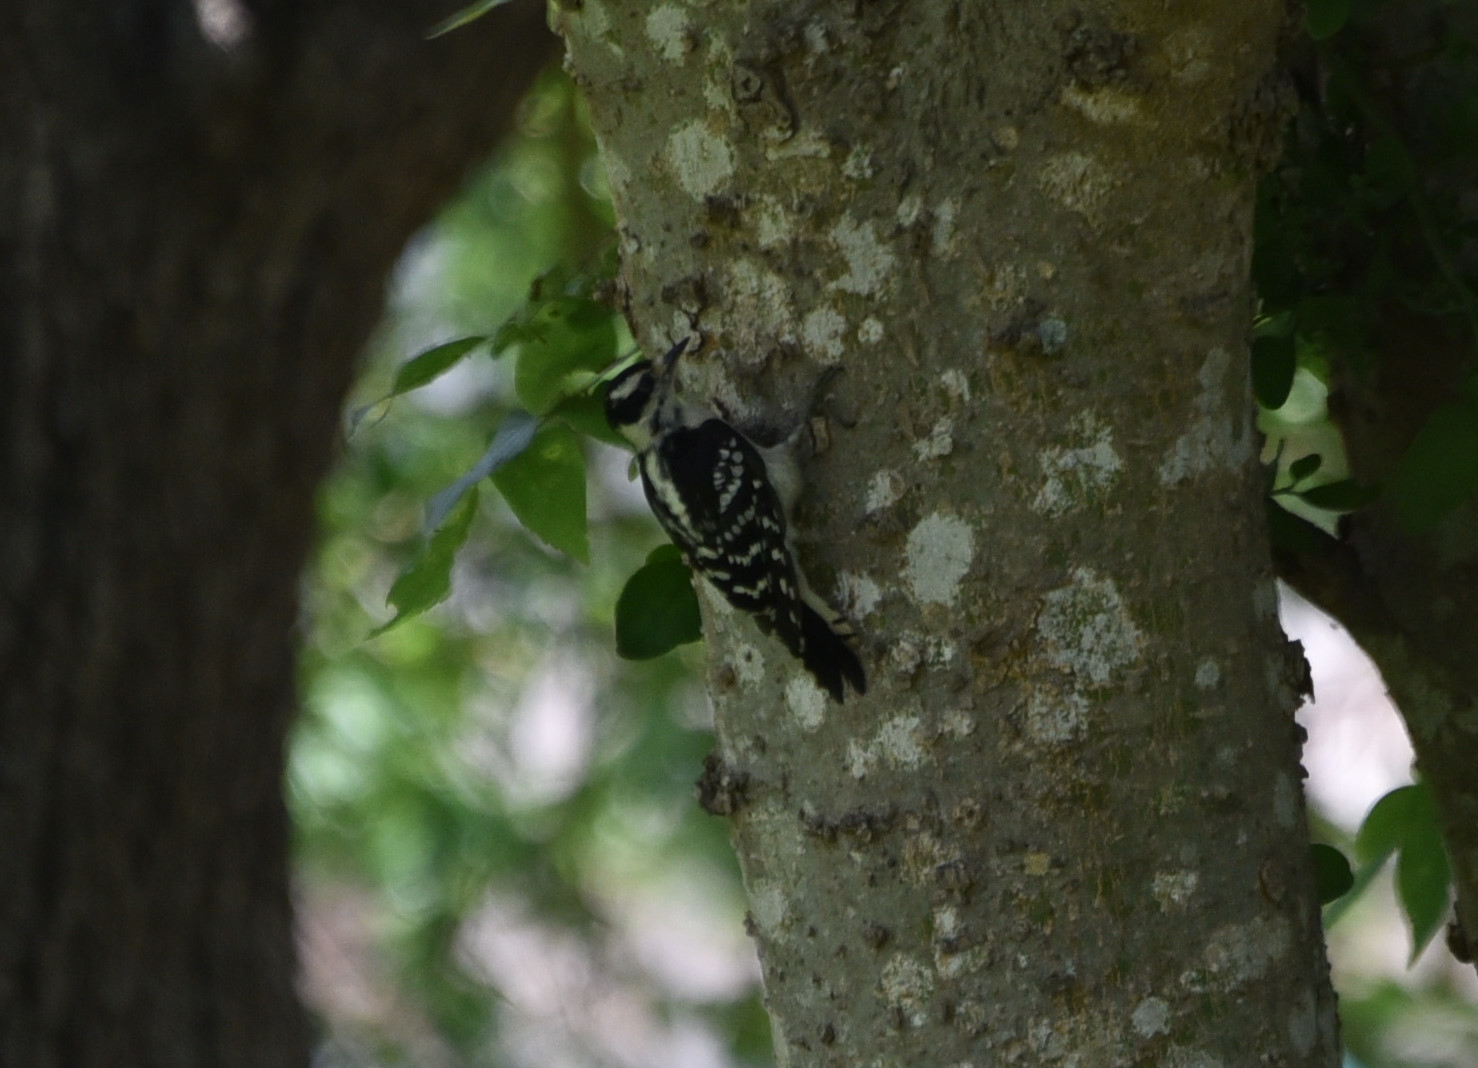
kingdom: Animalia
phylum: Chordata
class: Aves
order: Piciformes
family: Picidae
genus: Dryobates
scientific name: Dryobates pubescens
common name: Downy woodpecker
